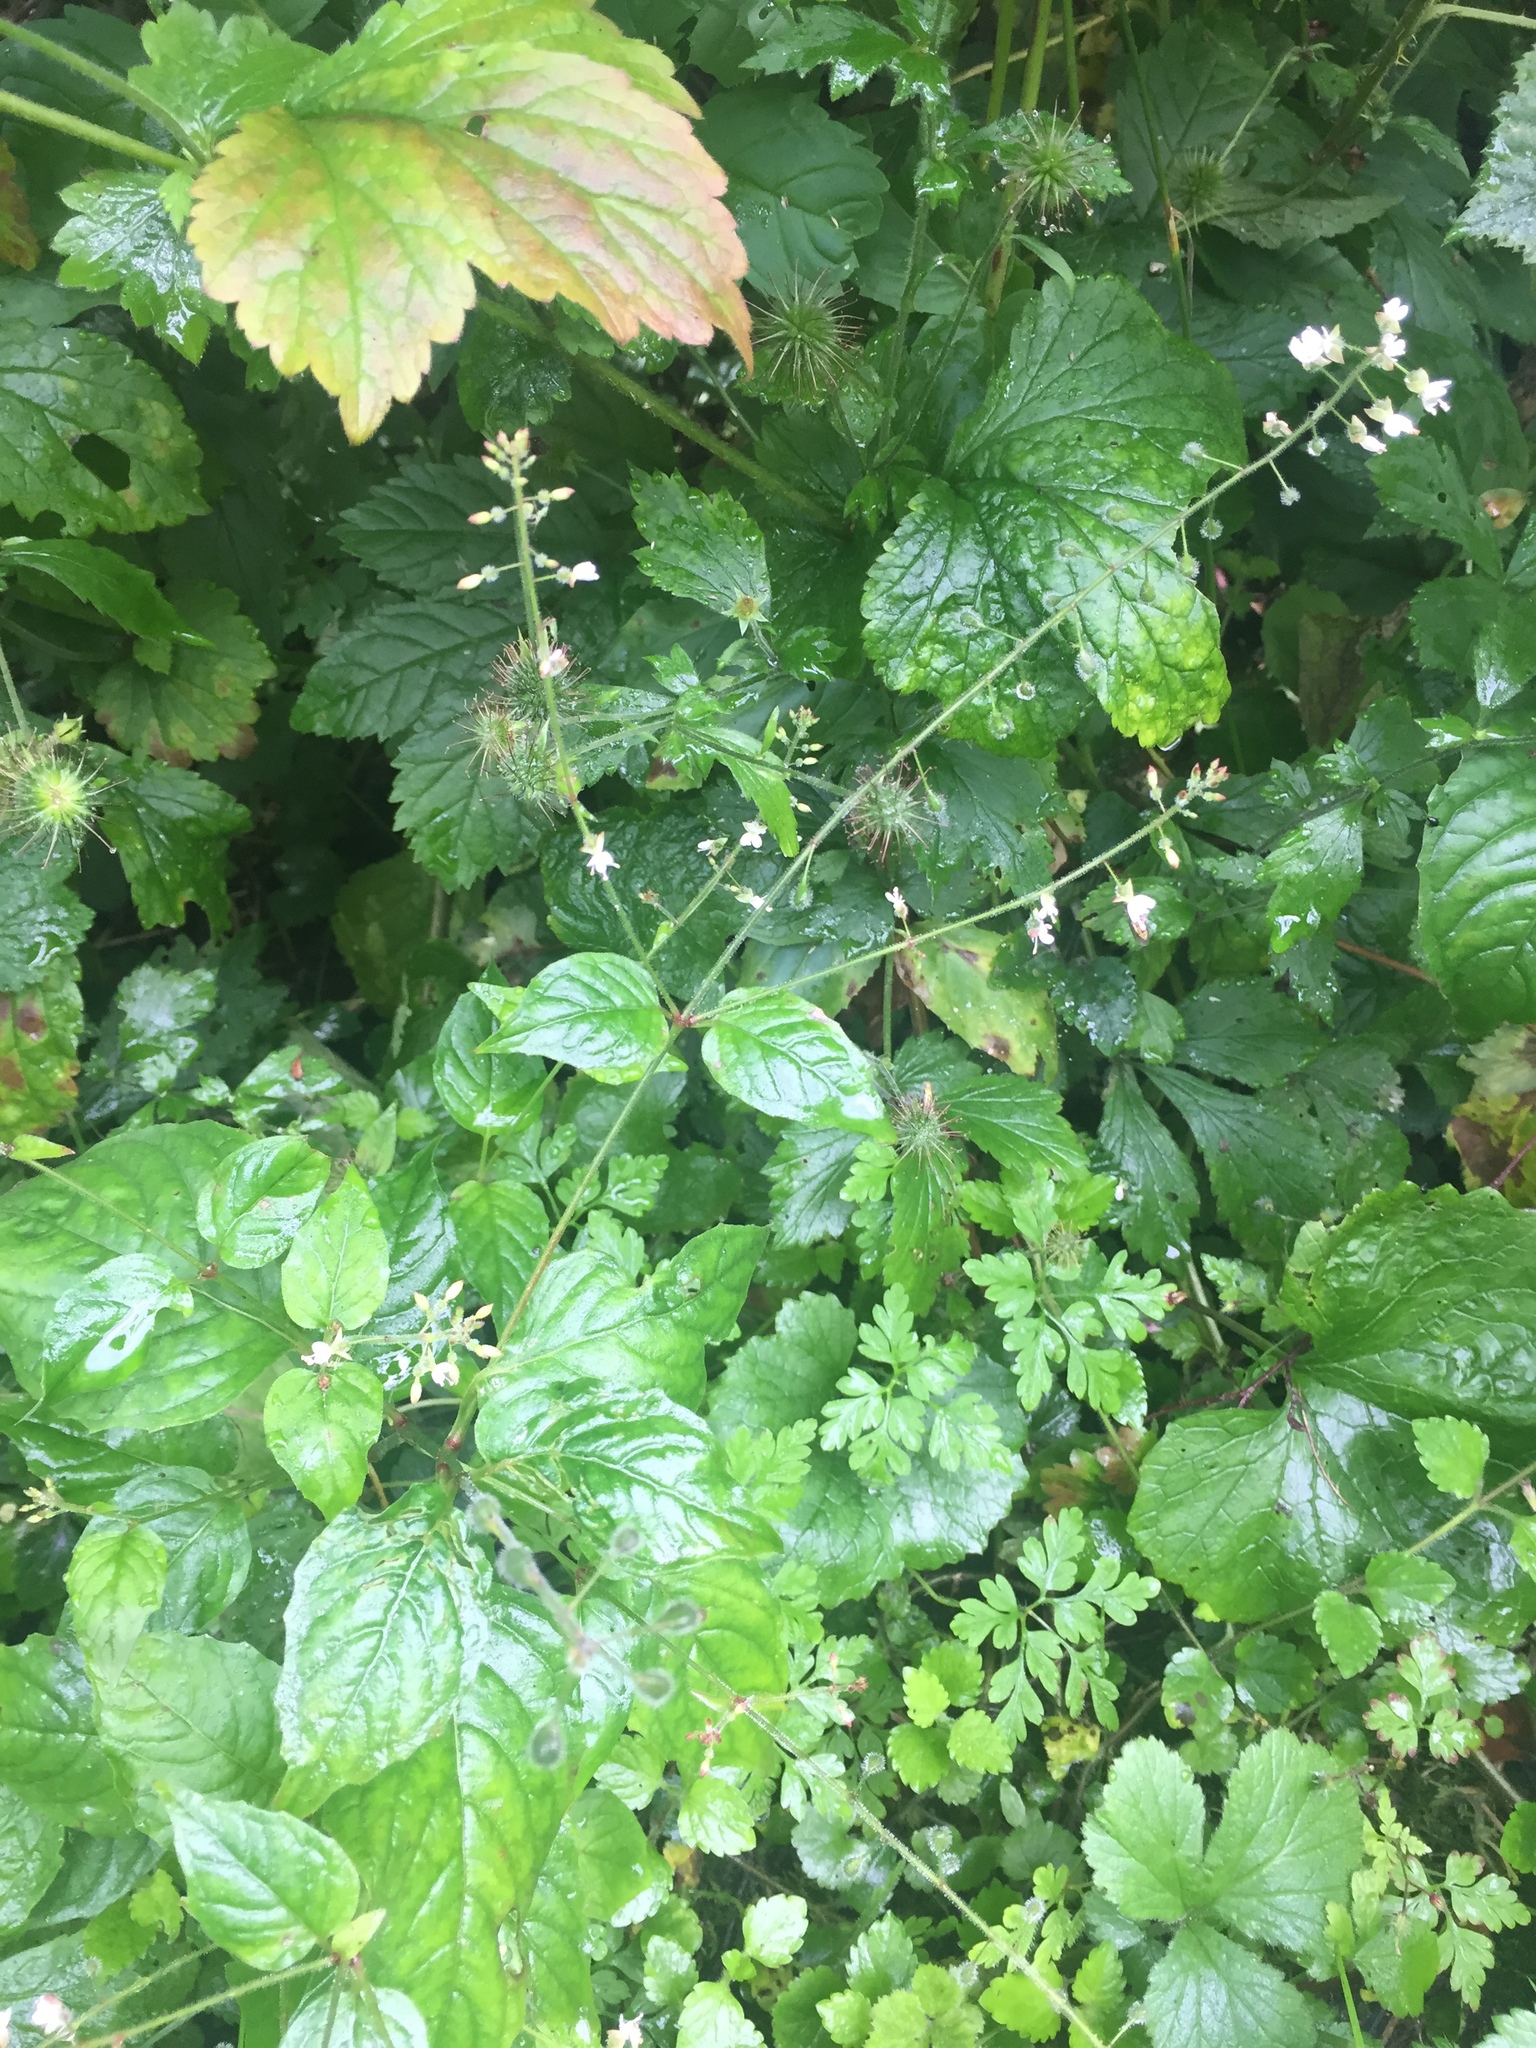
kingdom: Plantae
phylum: Tracheophyta
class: Magnoliopsida
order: Myrtales
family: Onagraceae
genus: Circaea
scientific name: Circaea lutetiana
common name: Enchanter's-nightshade
